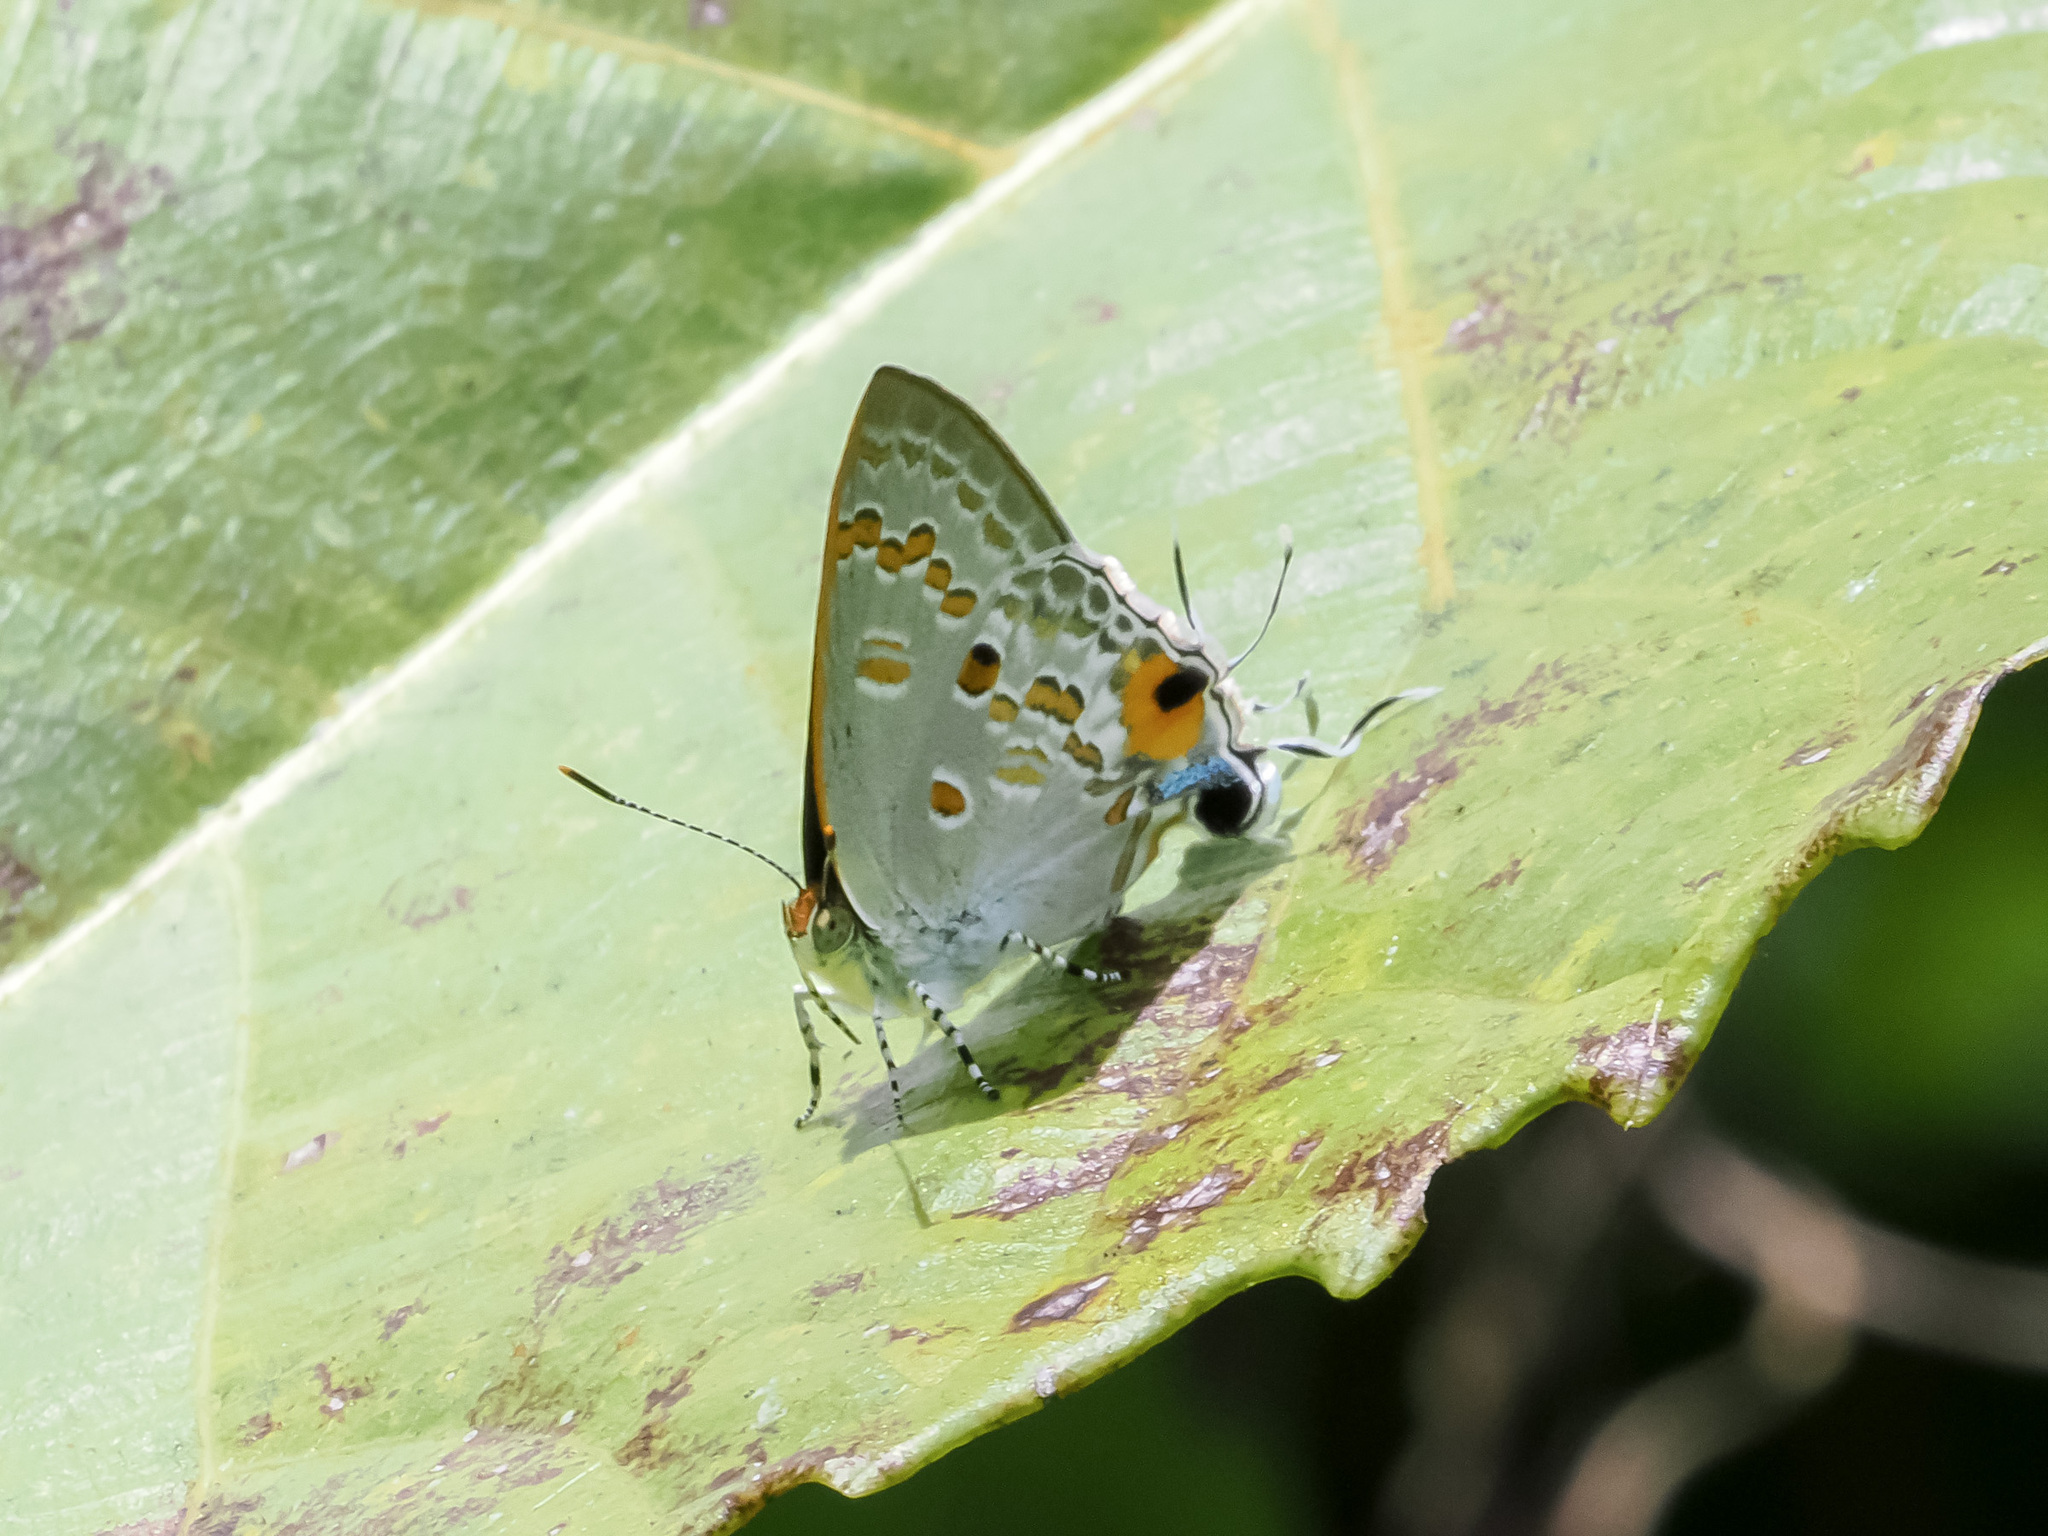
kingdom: Animalia
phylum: Arthropoda
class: Insecta
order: Lepidoptera
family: Lycaenidae
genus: Hypolycaena
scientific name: Hypolycaena sipylus
